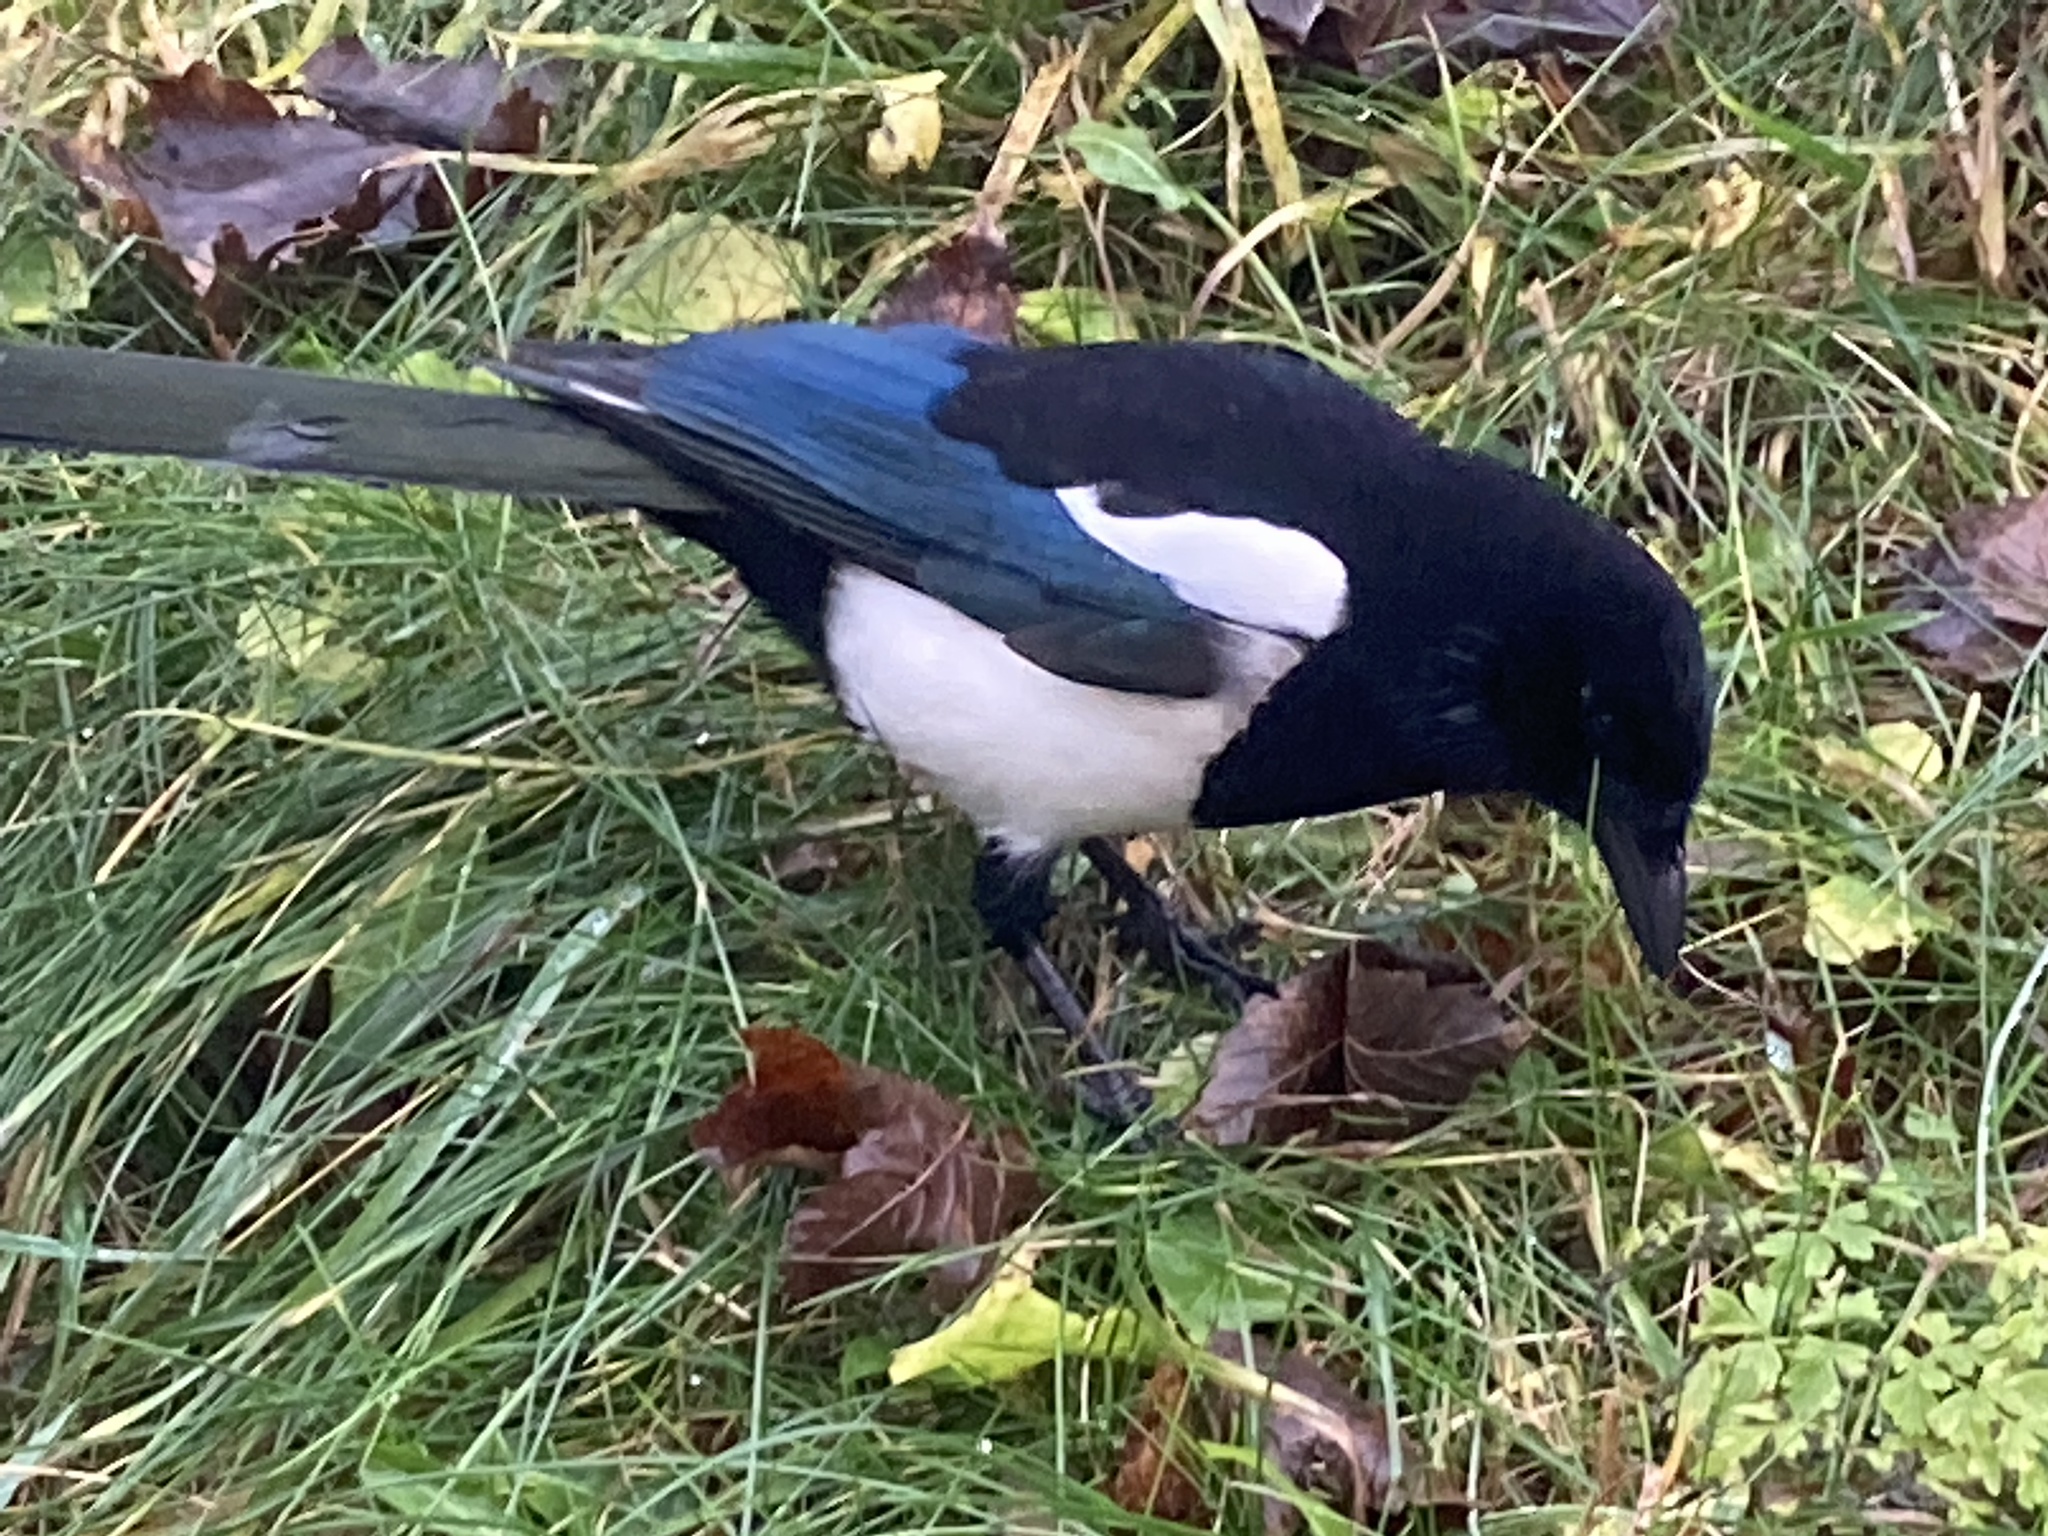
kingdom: Animalia
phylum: Chordata
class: Aves
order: Passeriformes
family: Corvidae
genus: Pica
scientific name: Pica pica
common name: Eurasian magpie
